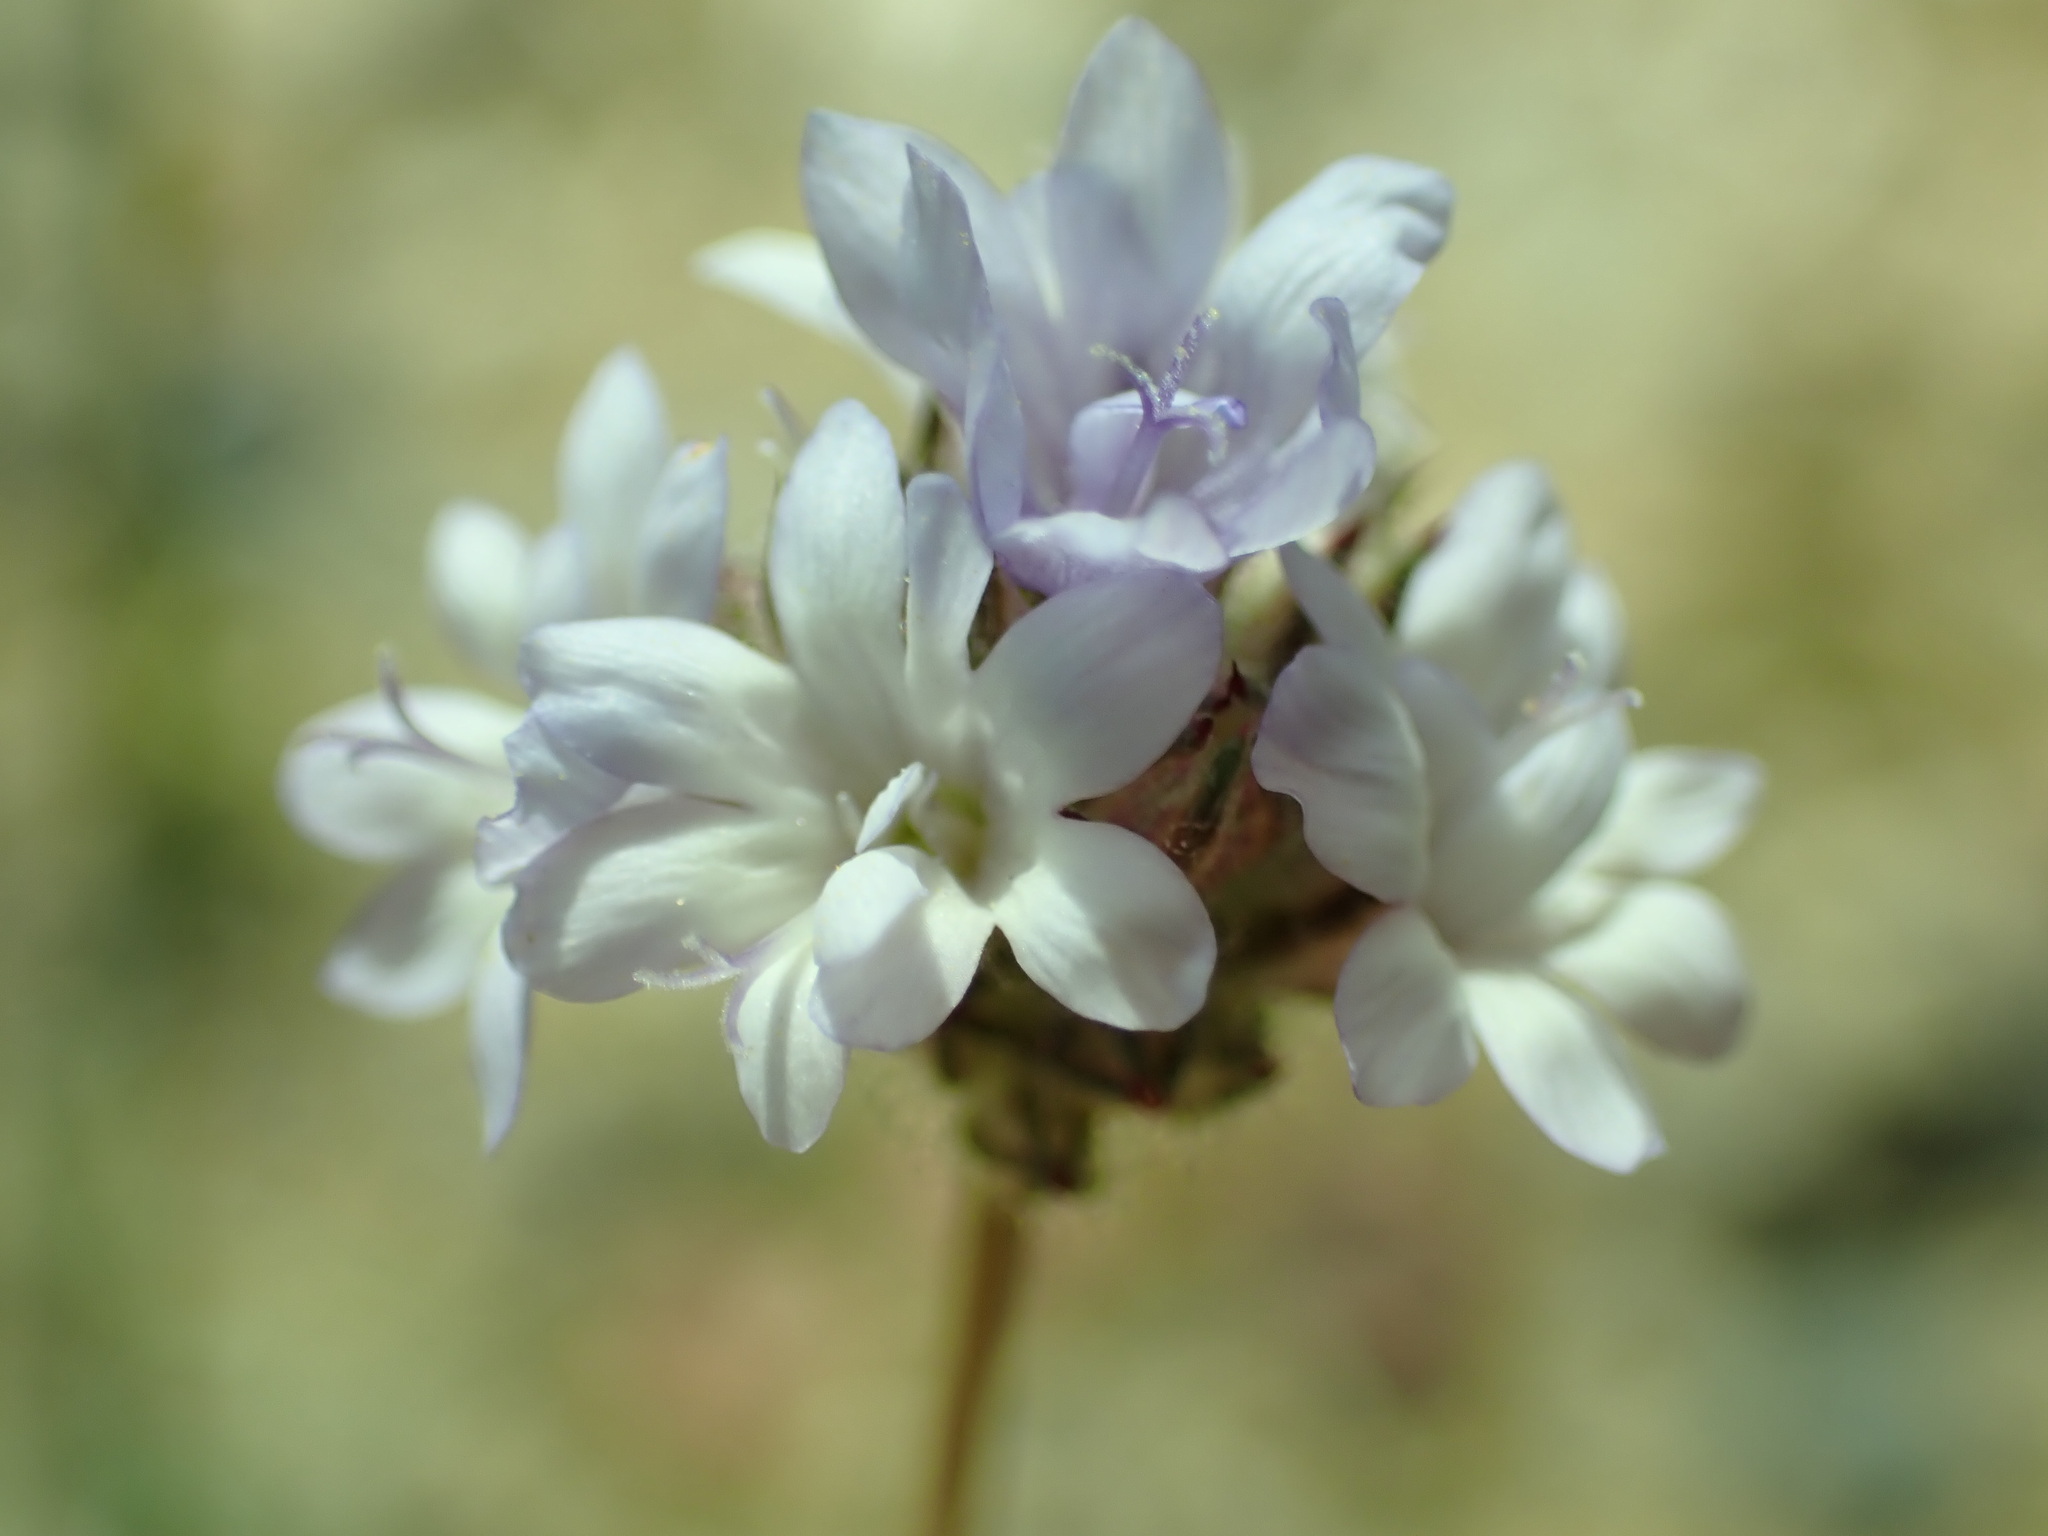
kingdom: Plantae
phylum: Tracheophyta
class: Magnoliopsida
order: Ericales
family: Polemoniaceae
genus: Gilia
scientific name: Gilia capitata
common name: Bluehead gilia
